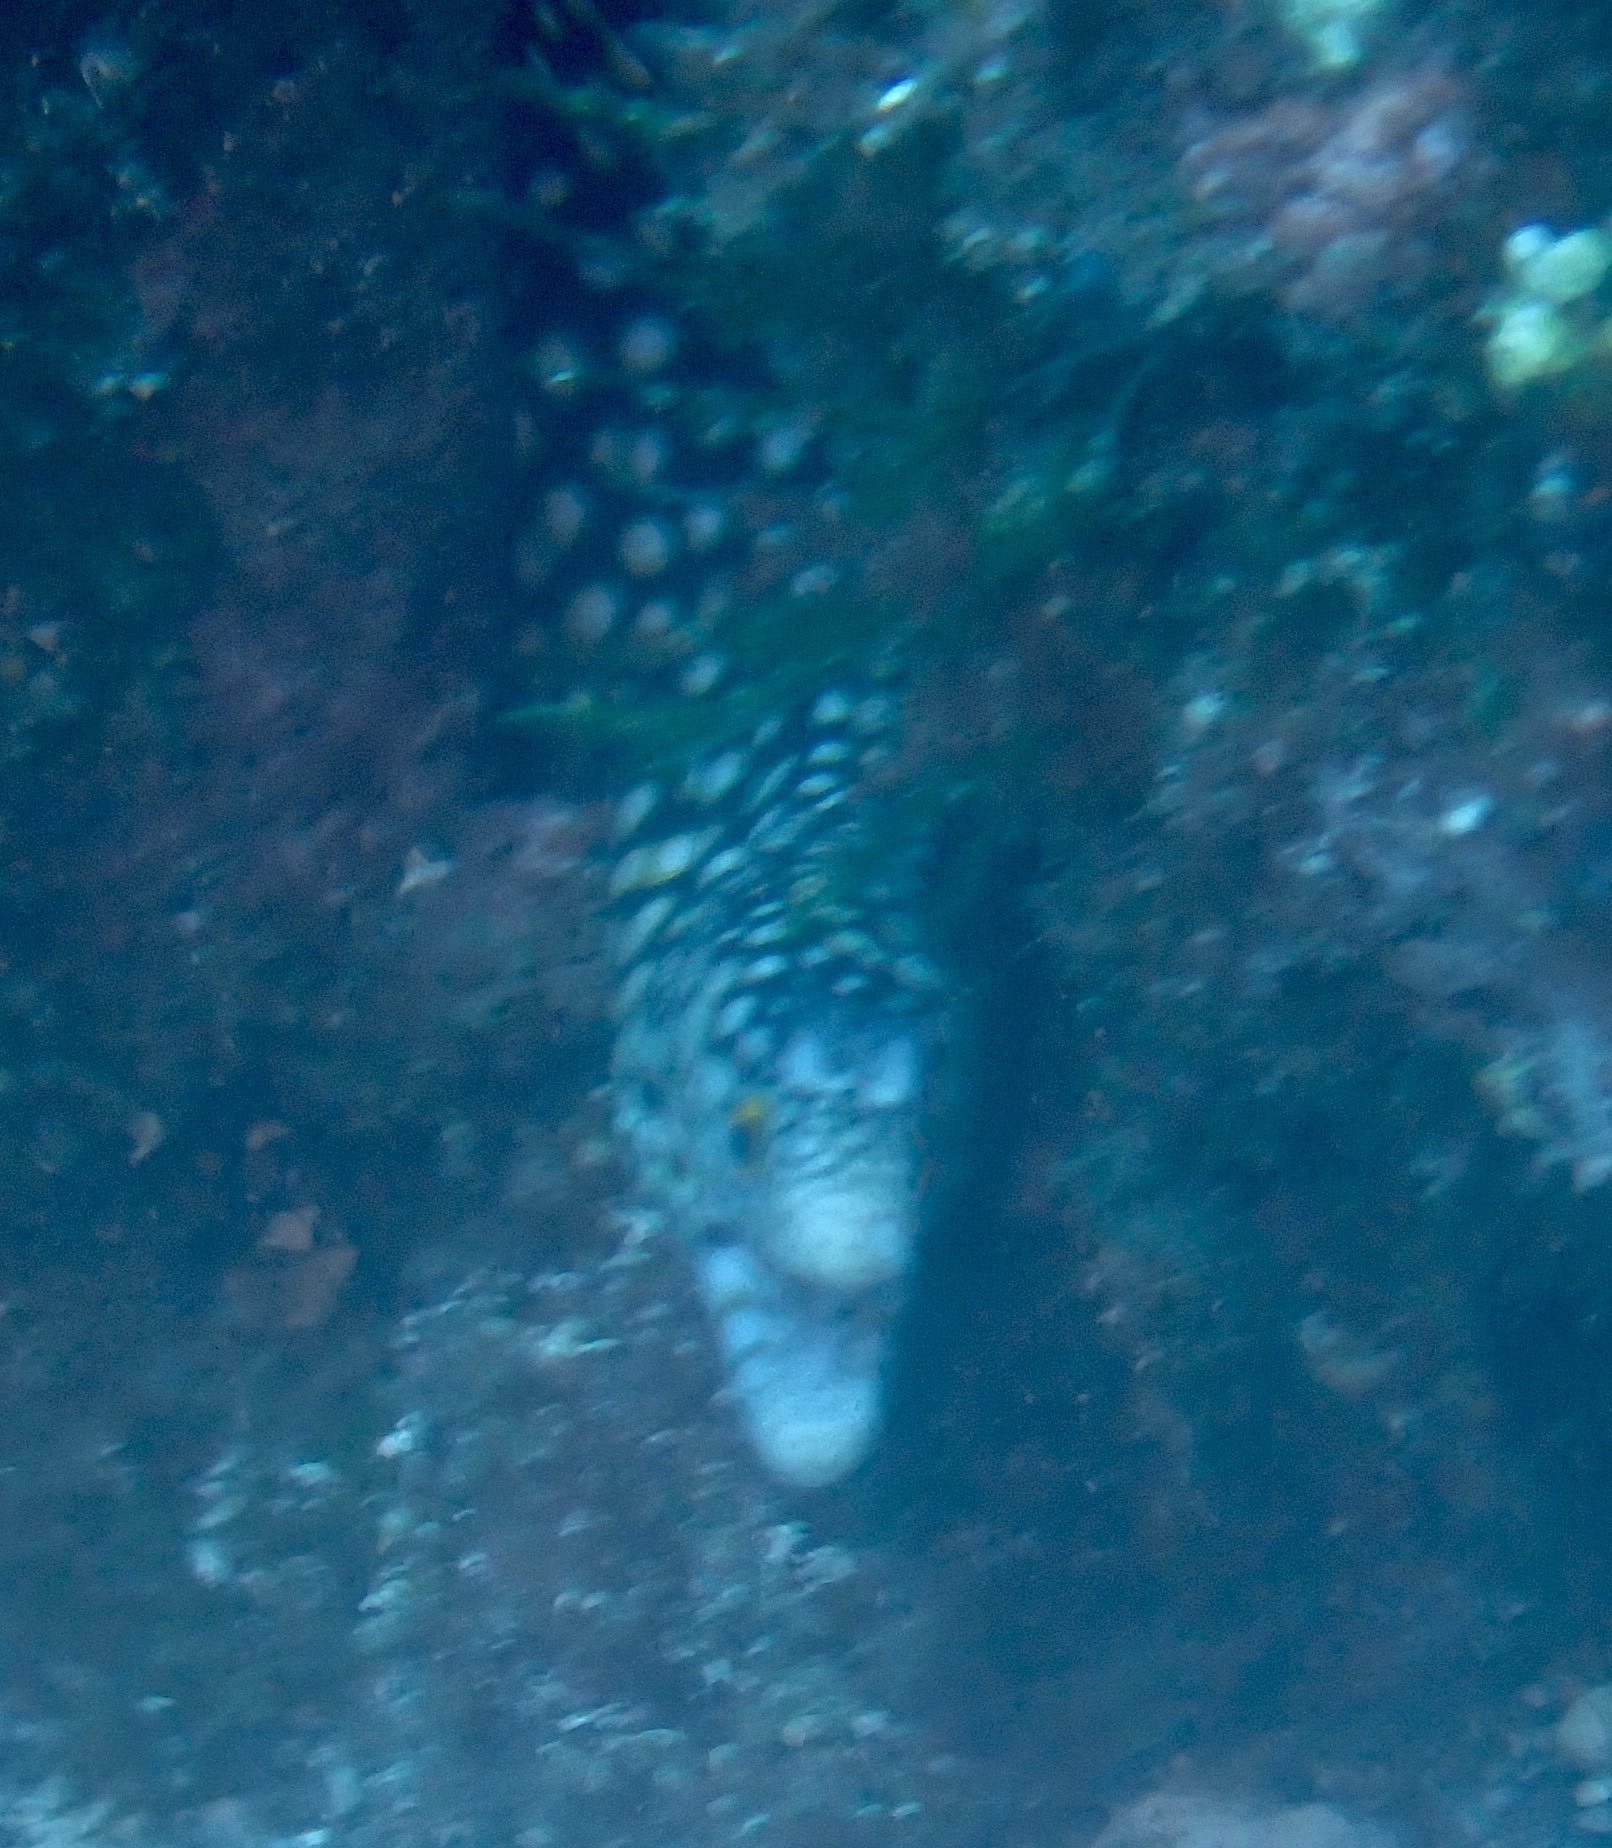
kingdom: Animalia
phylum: Chordata
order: Anguilliformes
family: Muraenidae
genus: Muraena
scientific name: Muraena melanotis
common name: Honeycomb moray
